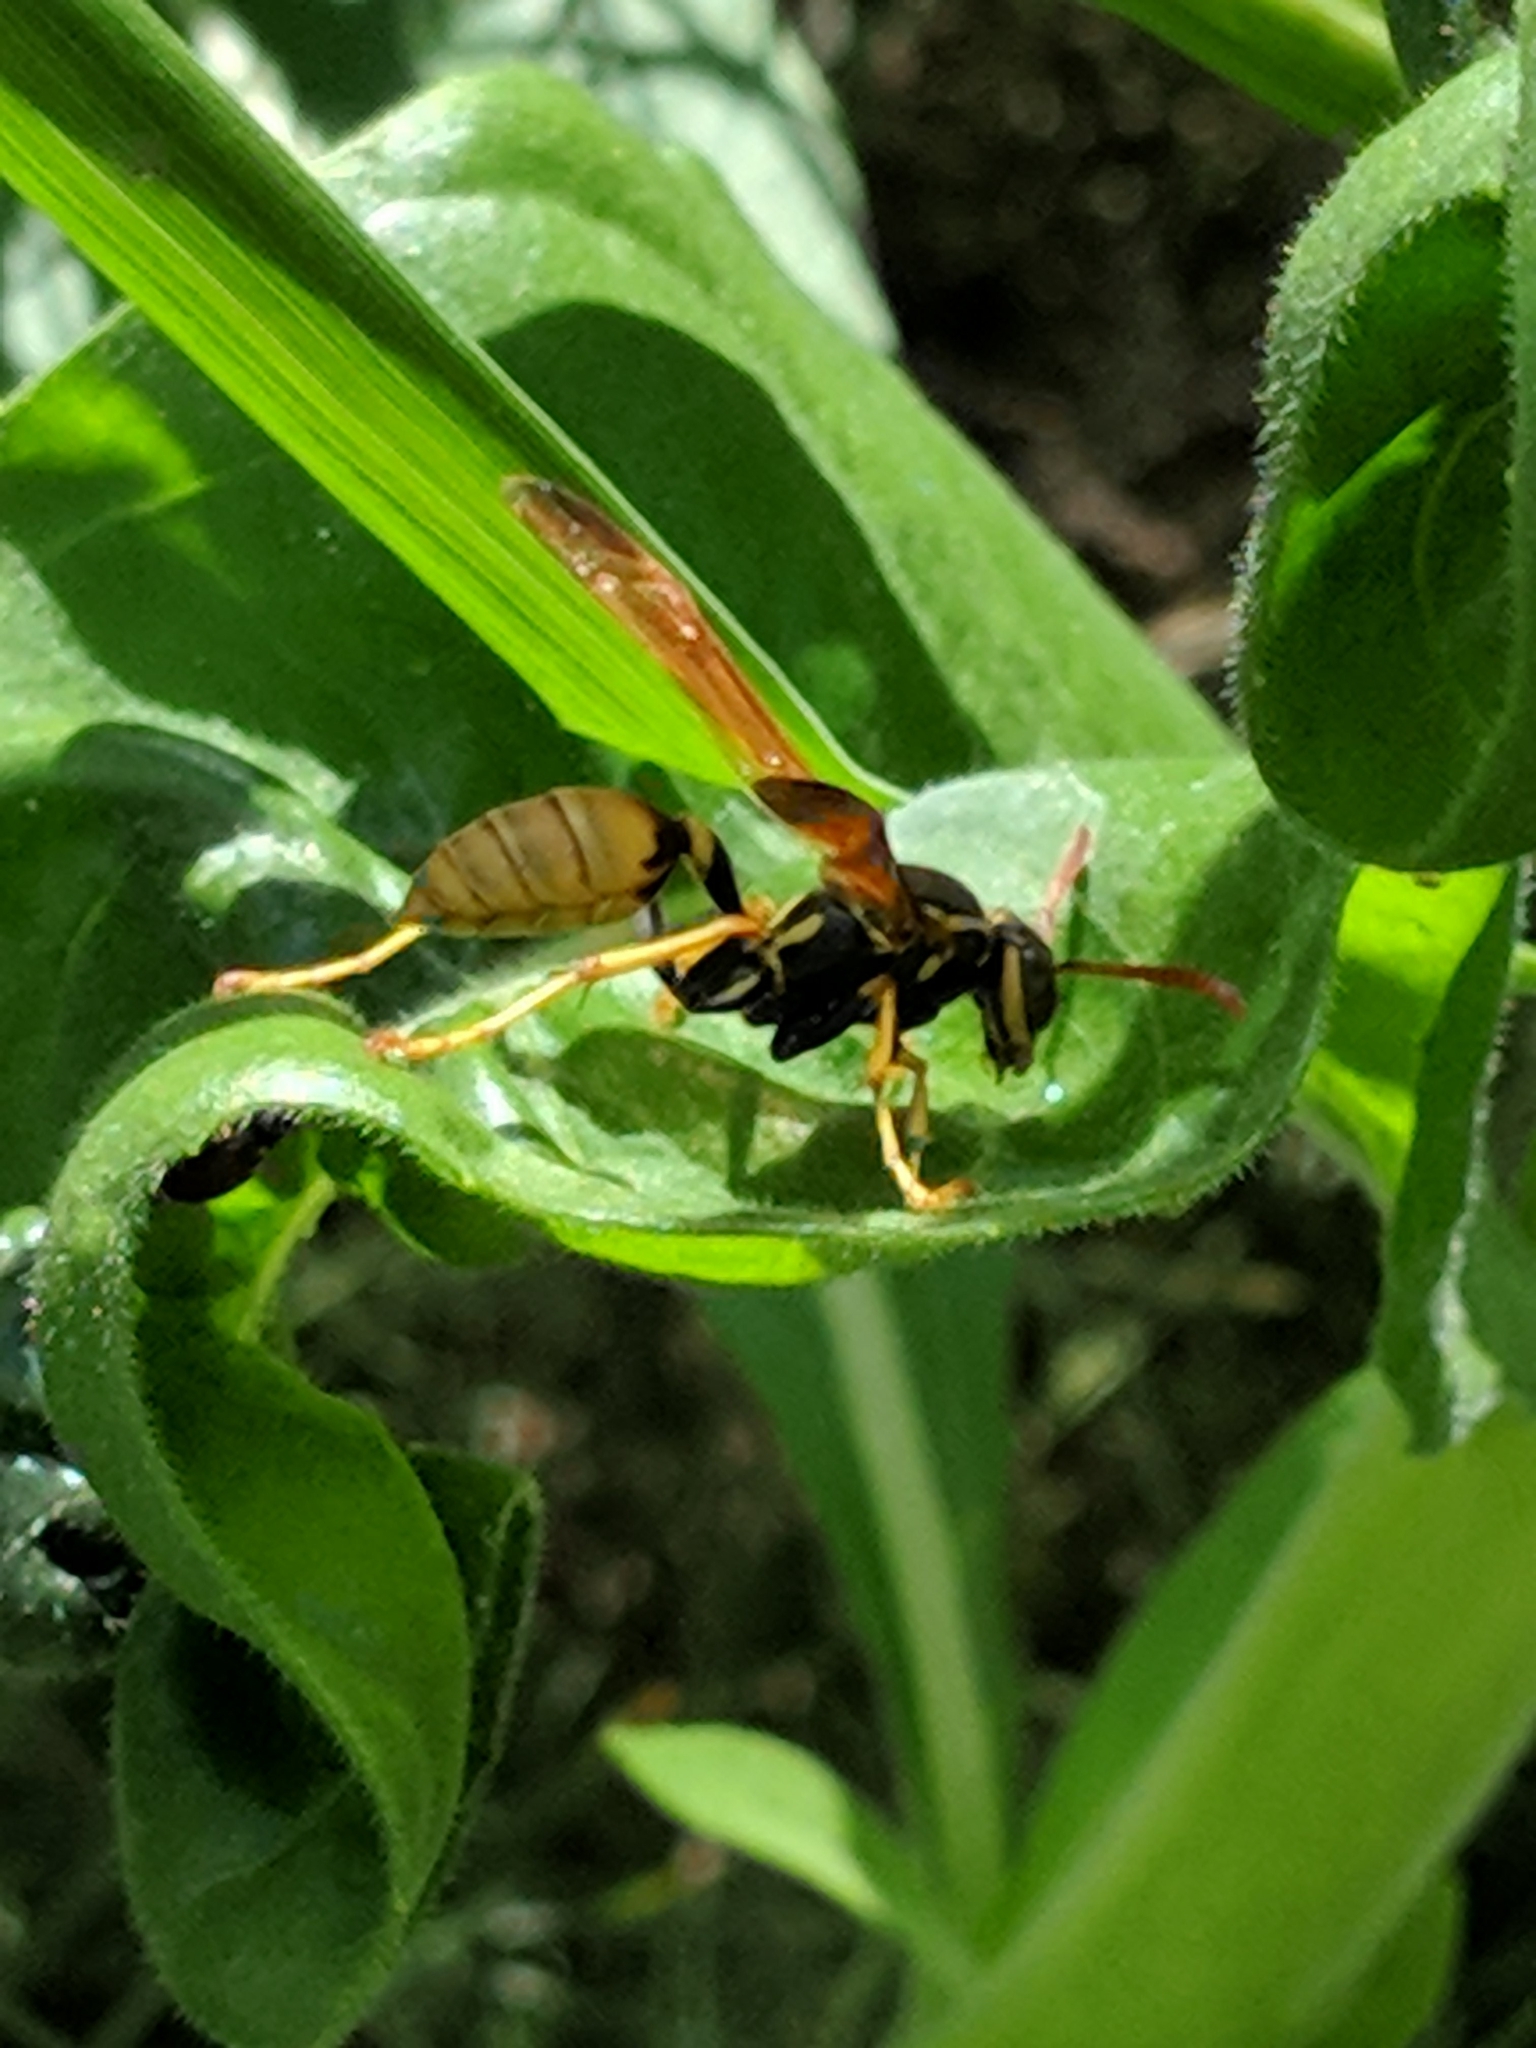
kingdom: Animalia
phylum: Arthropoda
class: Insecta
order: Hymenoptera
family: Vespidae
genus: Mischocyttarus
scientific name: Mischocyttarus flavitarsis
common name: Wasp
